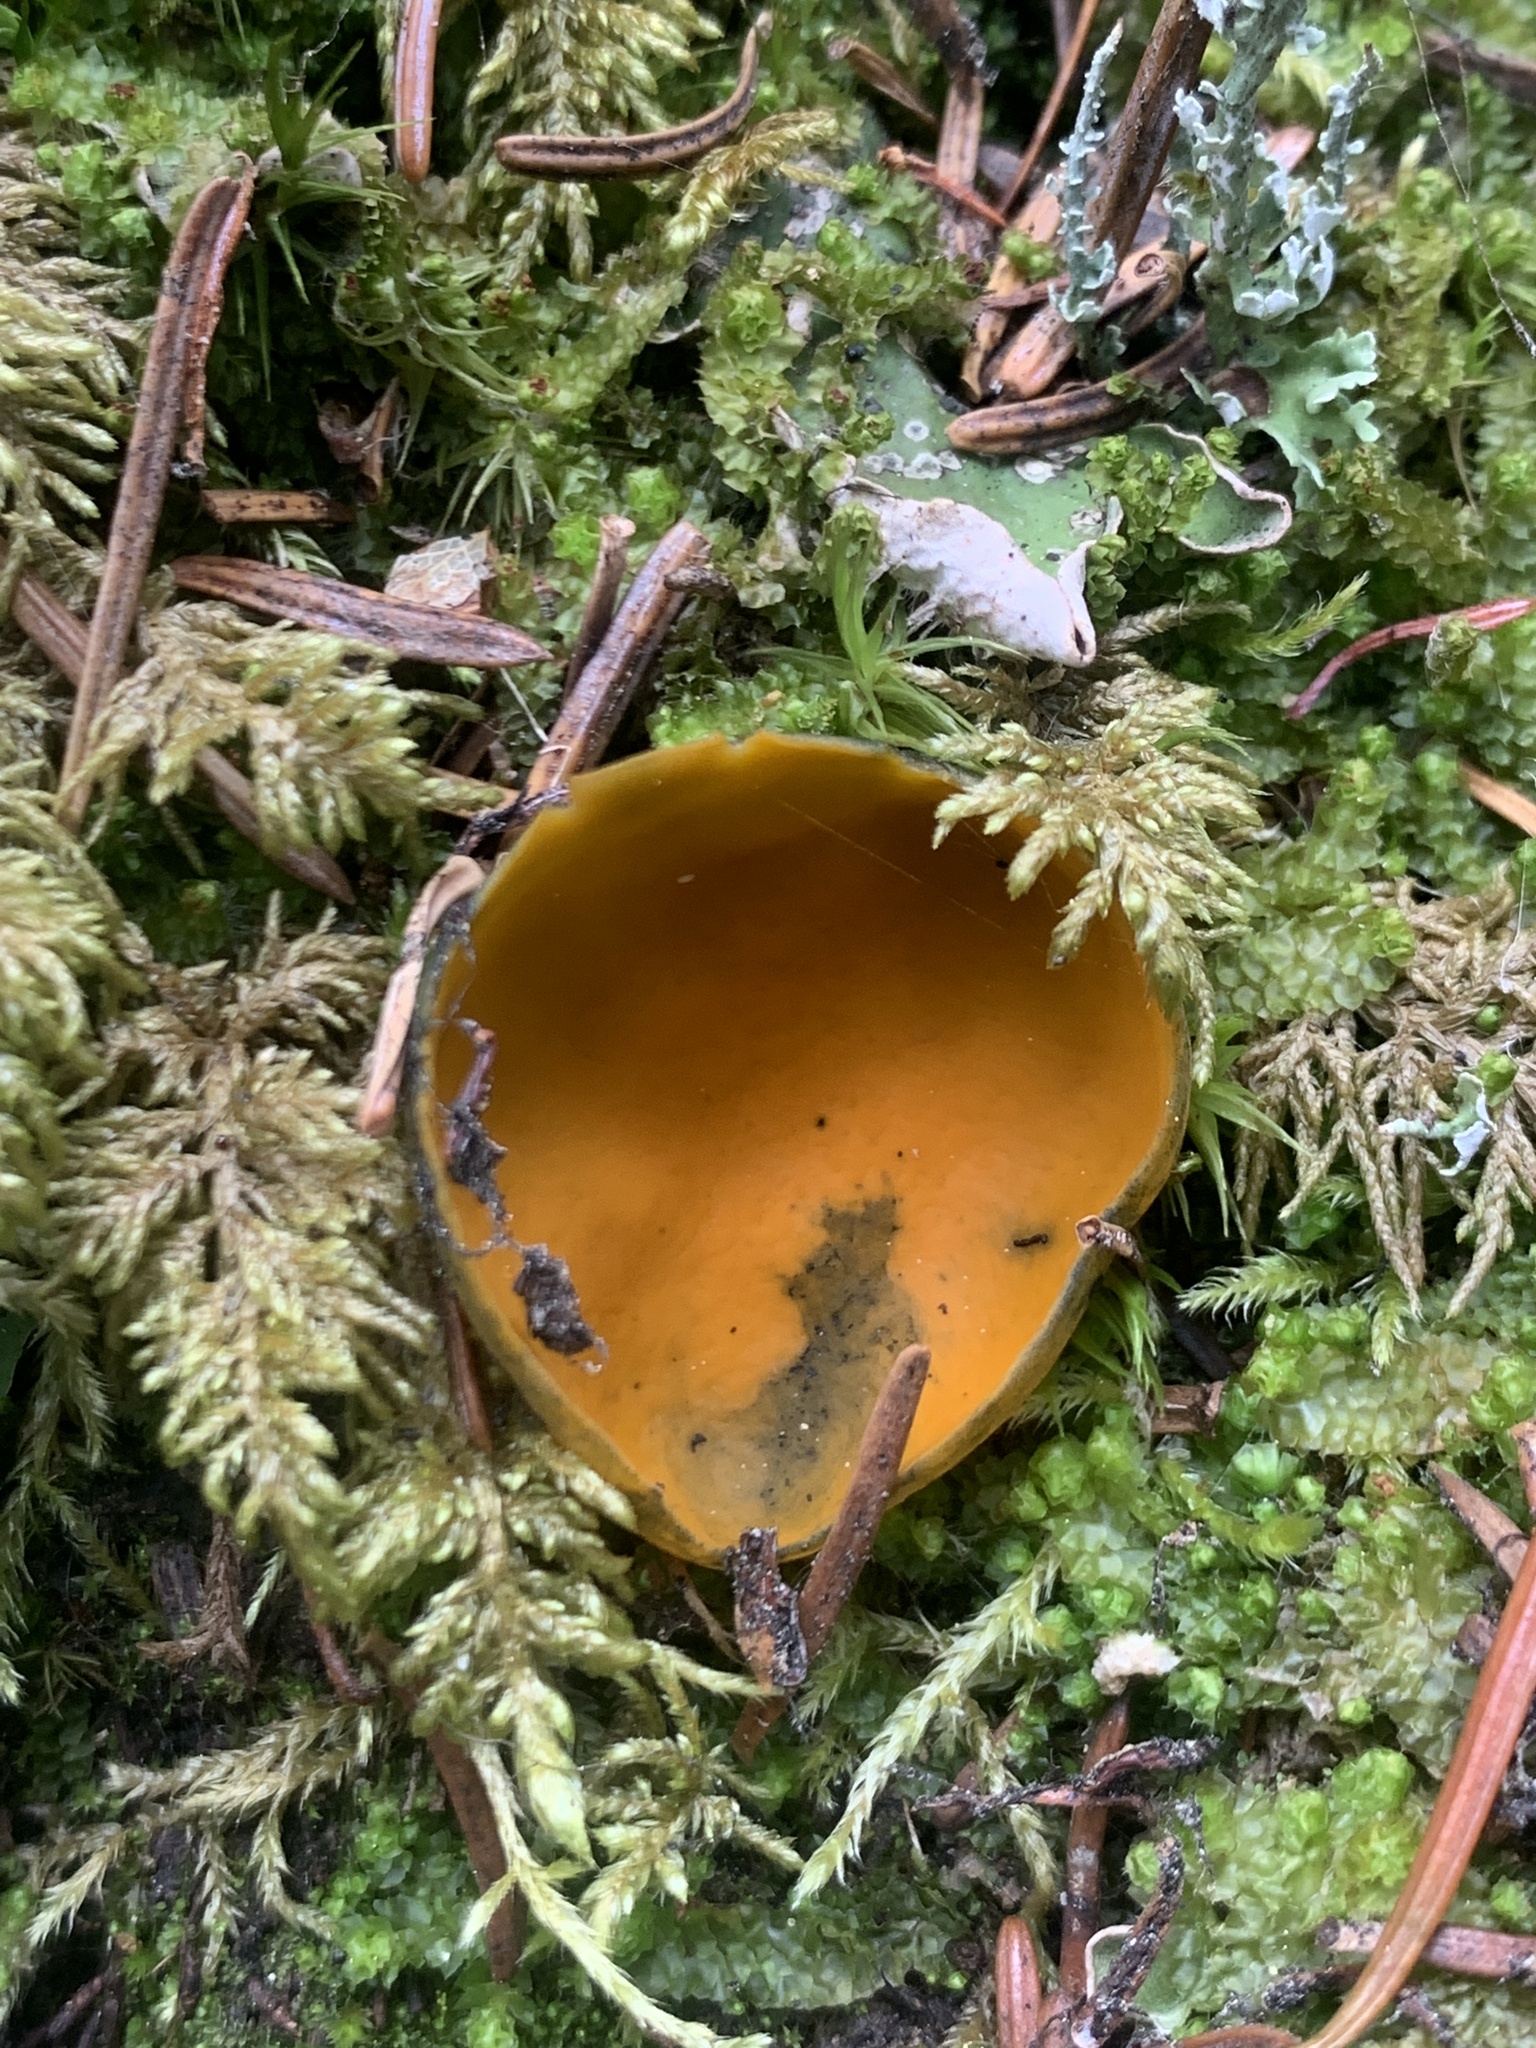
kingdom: Fungi
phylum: Ascomycota
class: Pezizomycetes
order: Pezizales
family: Caloscyphaceae
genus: Caloscypha
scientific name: Caloscypha fulgens
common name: Golden cup
